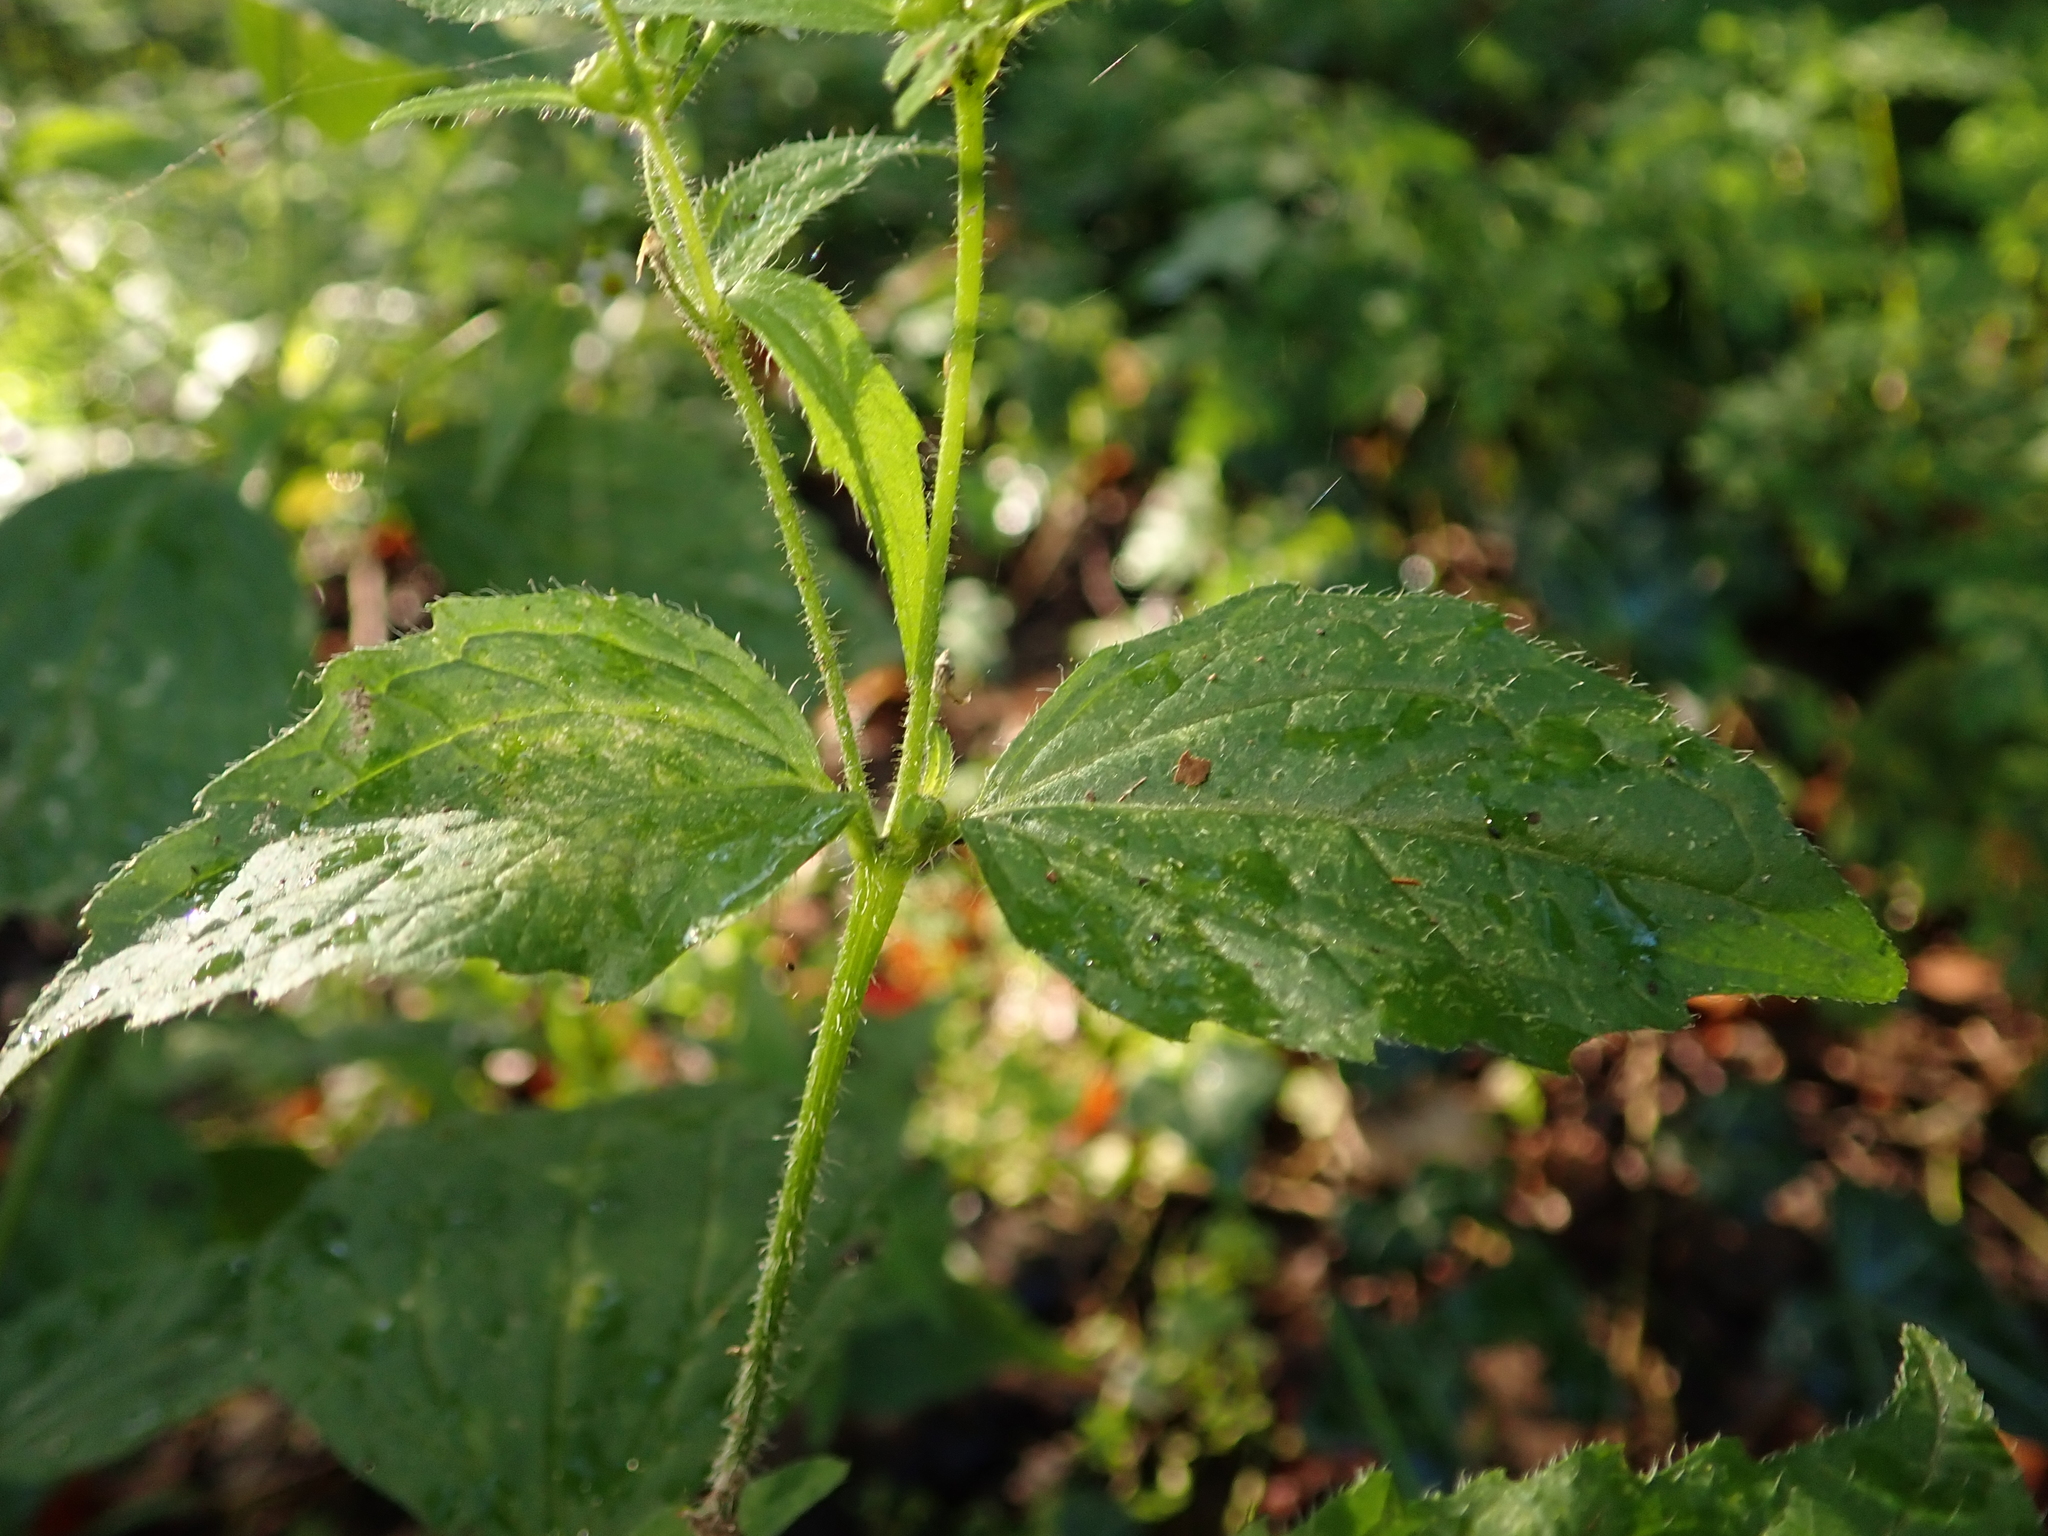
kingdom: Plantae
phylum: Tracheophyta
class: Magnoliopsida
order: Asterales
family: Asteraceae
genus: Galinsoga
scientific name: Galinsoga quadriradiata
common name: Shaggy soldier
